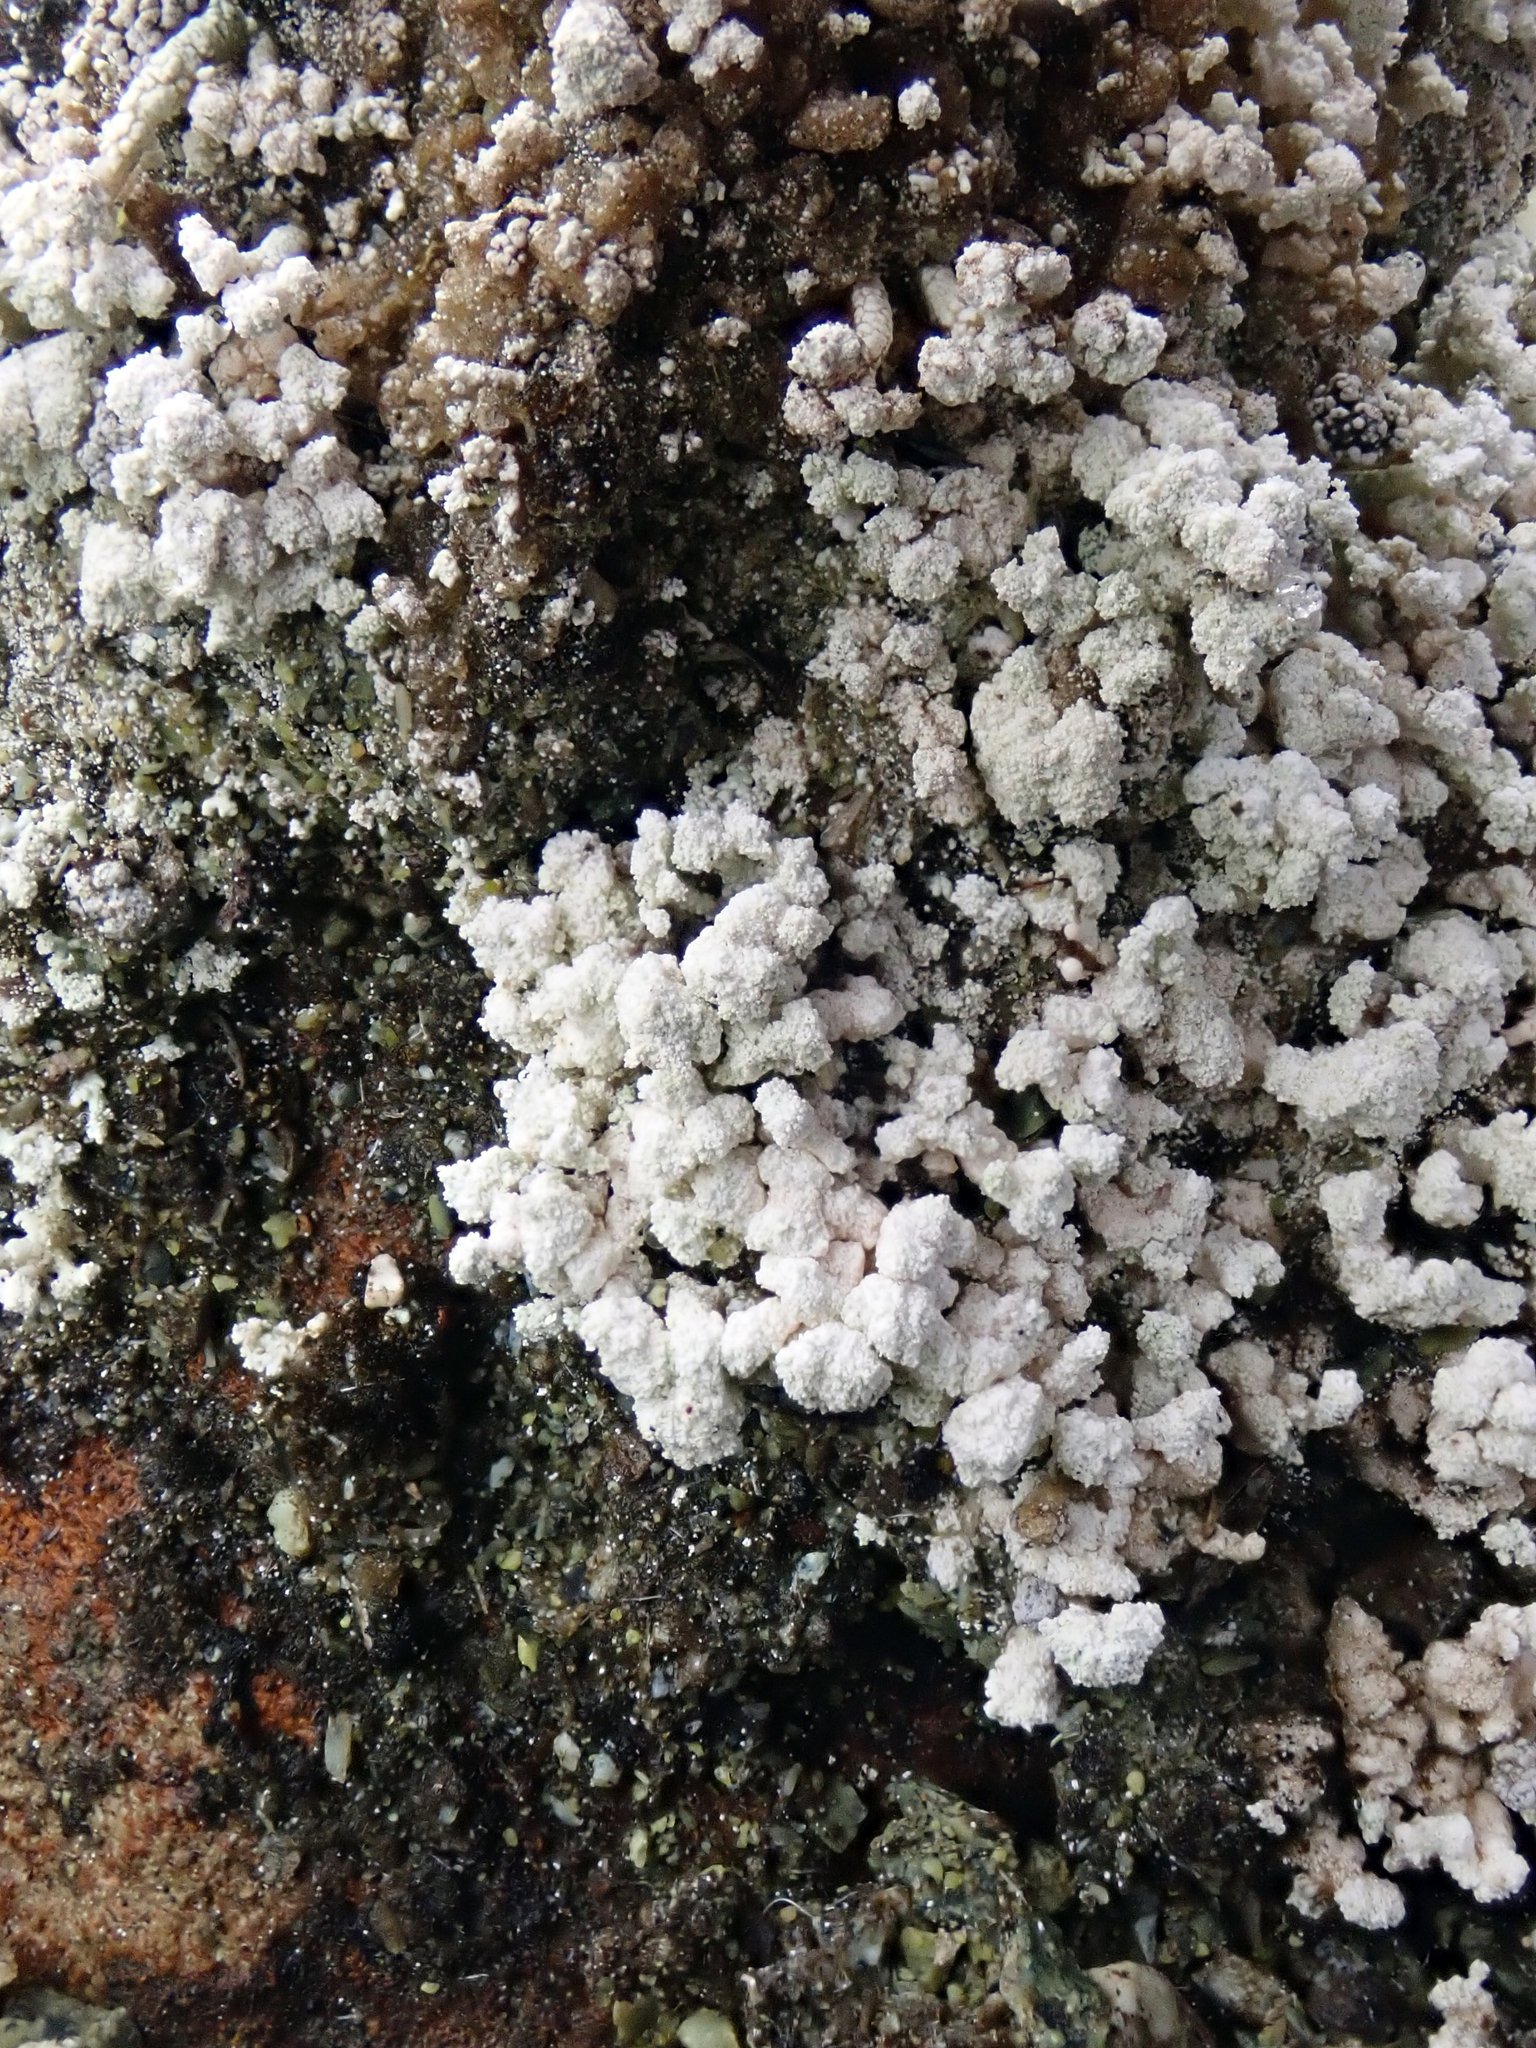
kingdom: Fungi
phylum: Ascomycota
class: Lecanoromycetes
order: Lecanorales
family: Stereocaulaceae
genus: Stereocaulon
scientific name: Stereocaulon corticatulum
